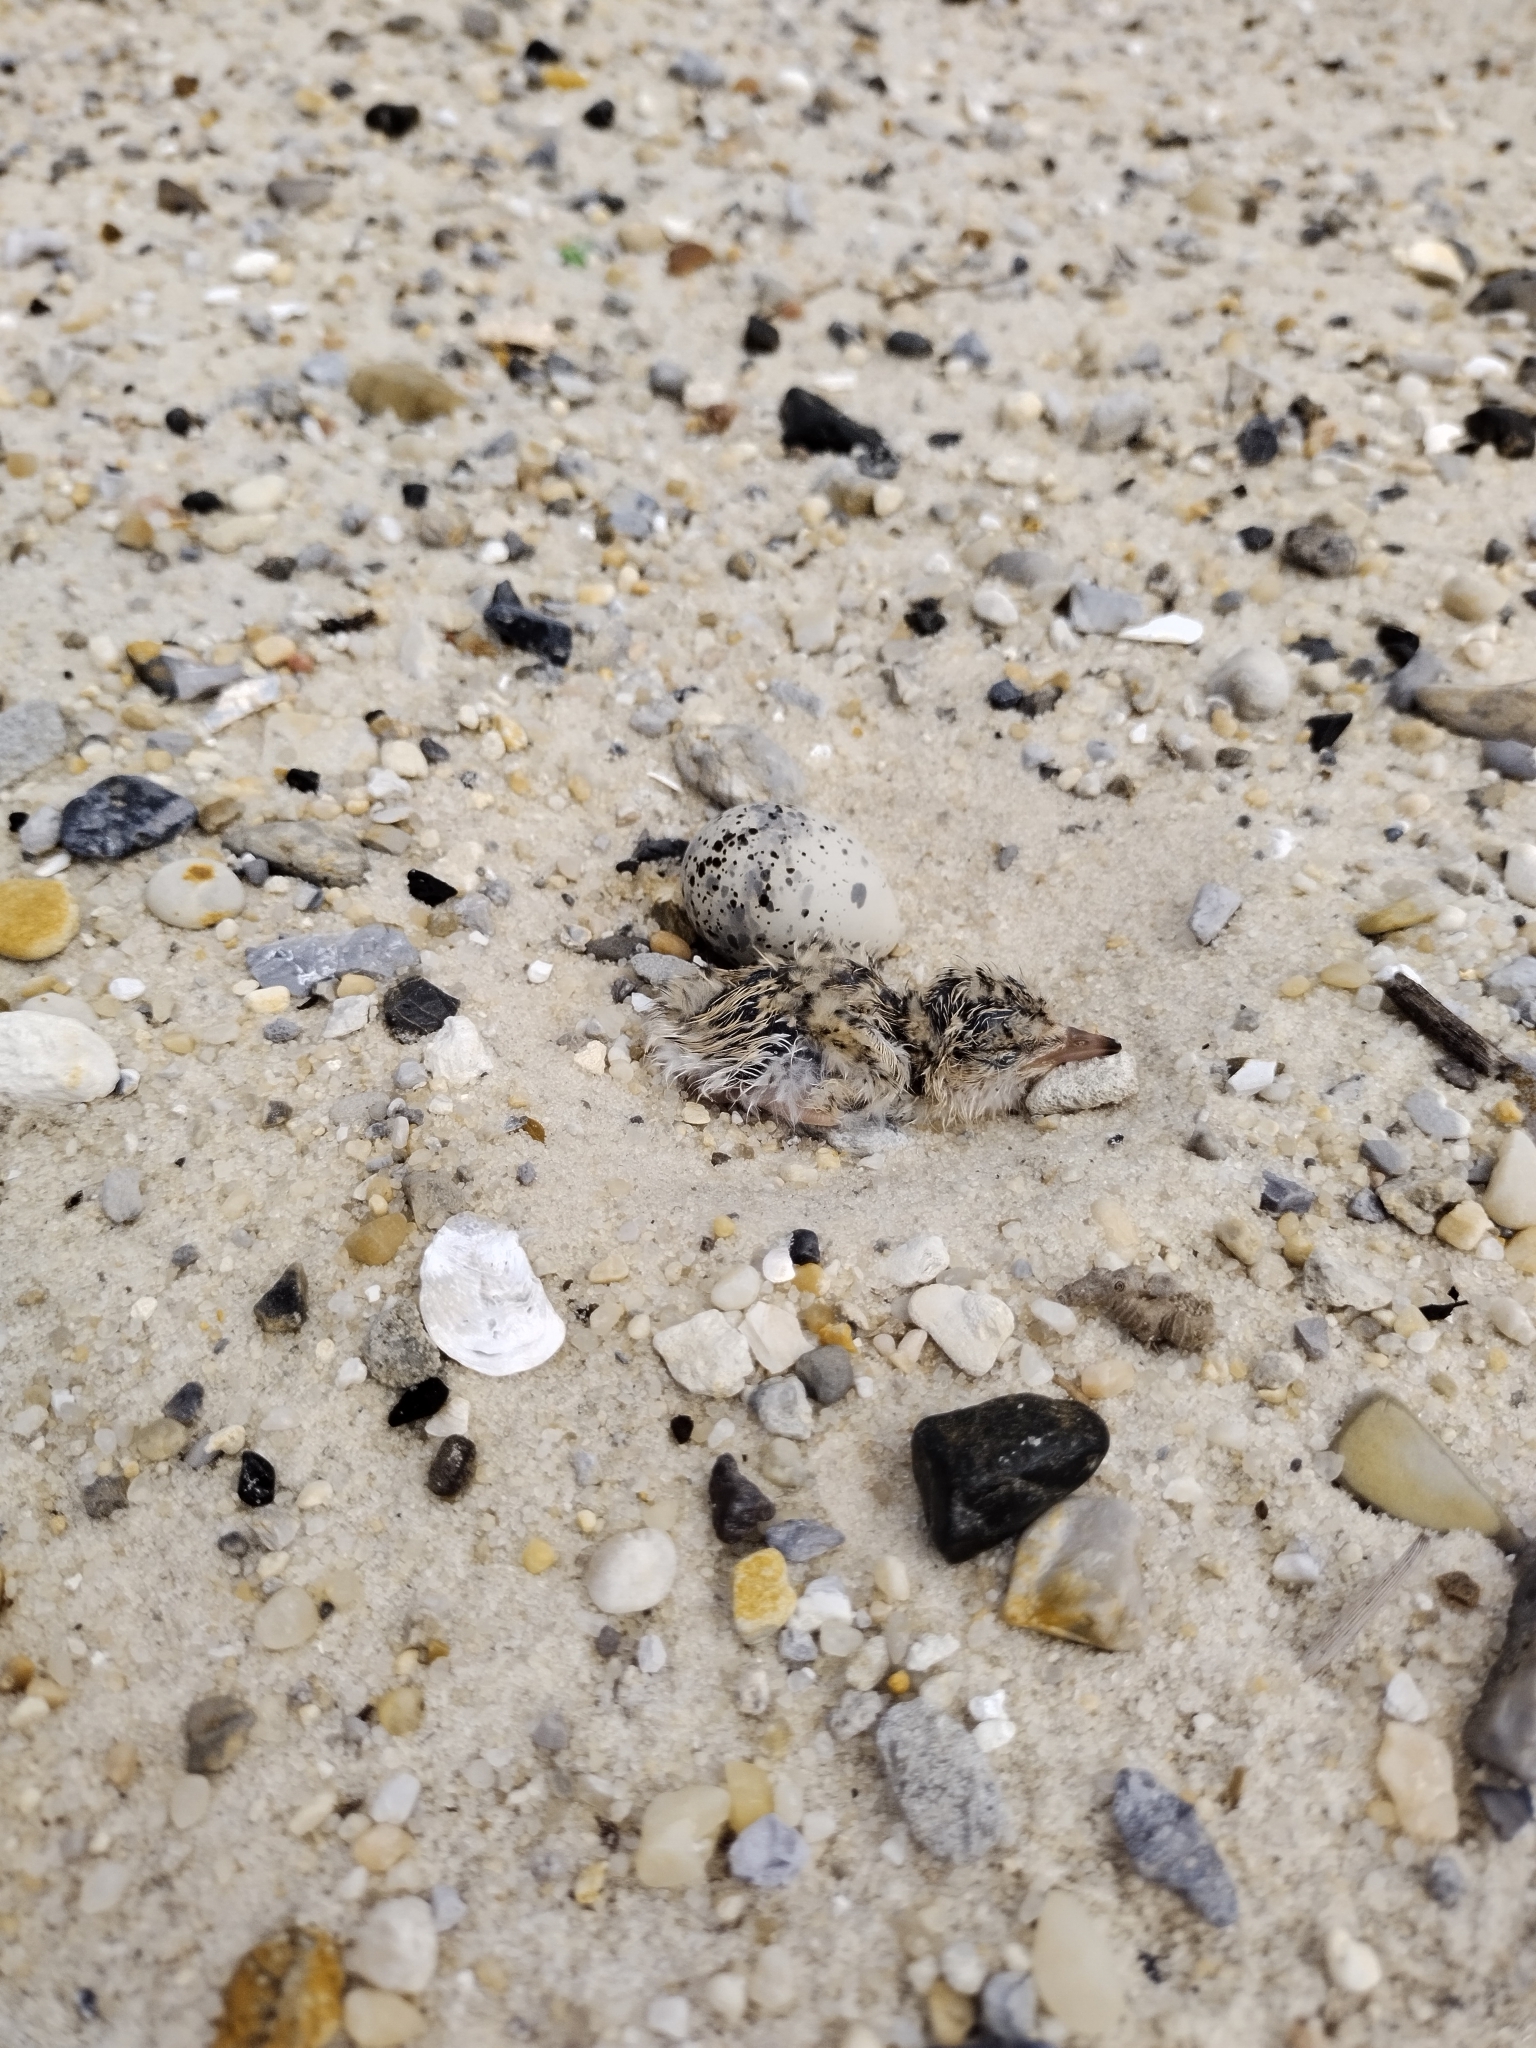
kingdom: Animalia
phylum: Chordata
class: Aves
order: Charadriiformes
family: Laridae
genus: Sternula
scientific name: Sternula antillarum
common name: Least tern
